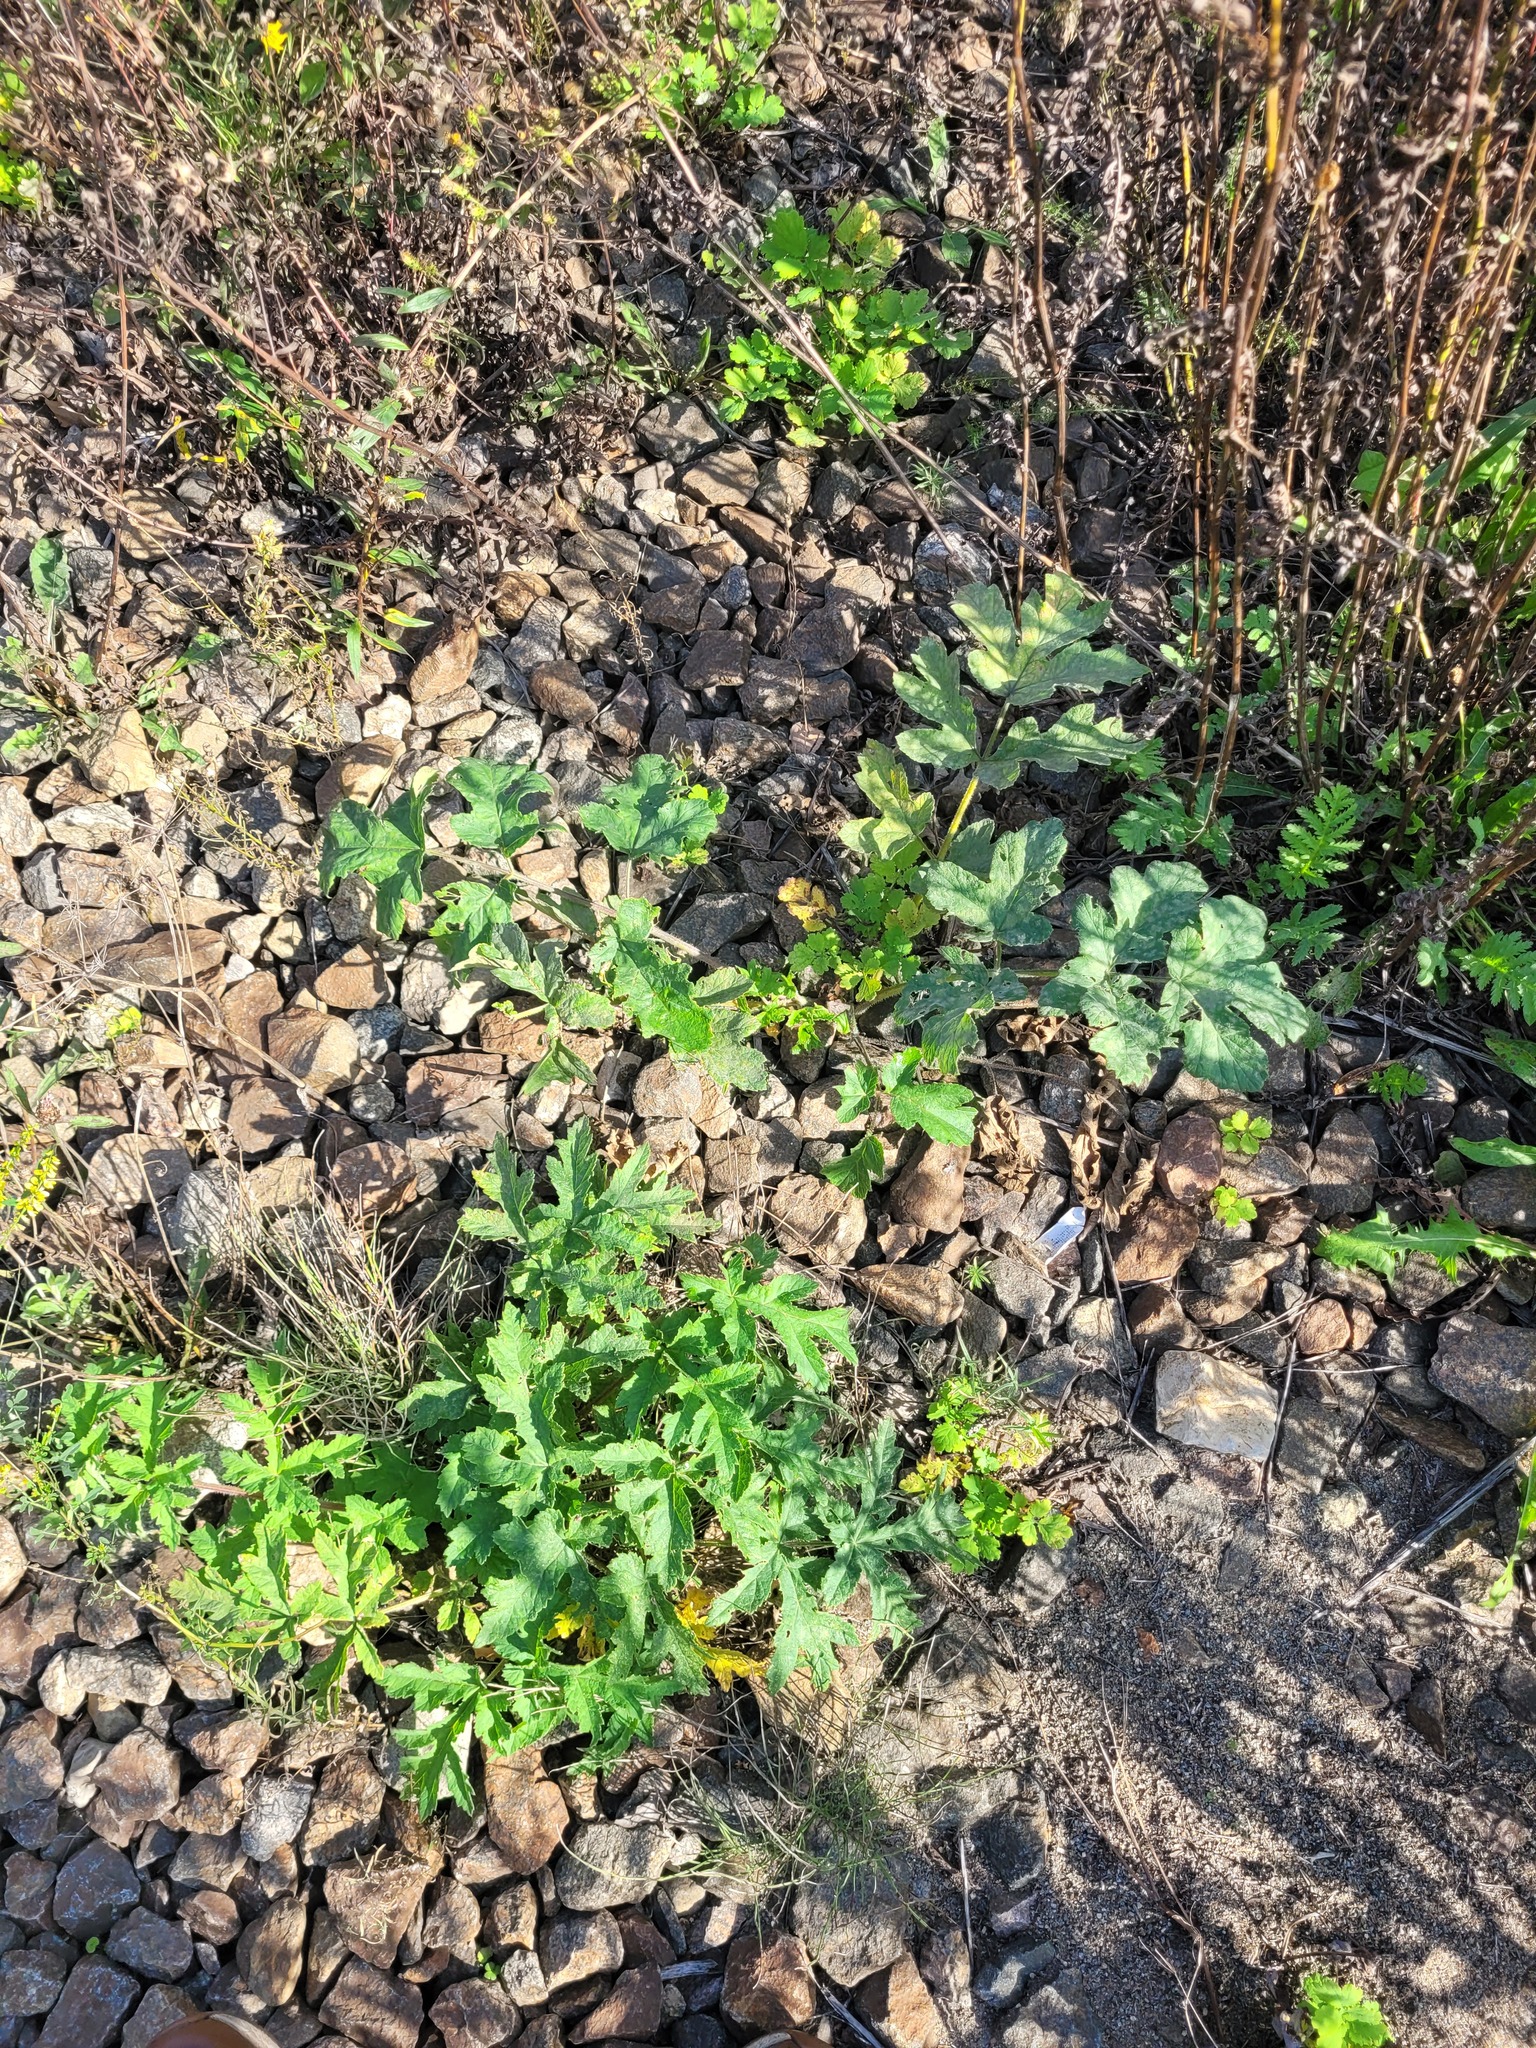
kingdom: Plantae
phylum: Tracheophyta
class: Magnoliopsida
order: Apiales
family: Apiaceae
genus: Heracleum
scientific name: Heracleum sphondylium
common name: Hogweed
